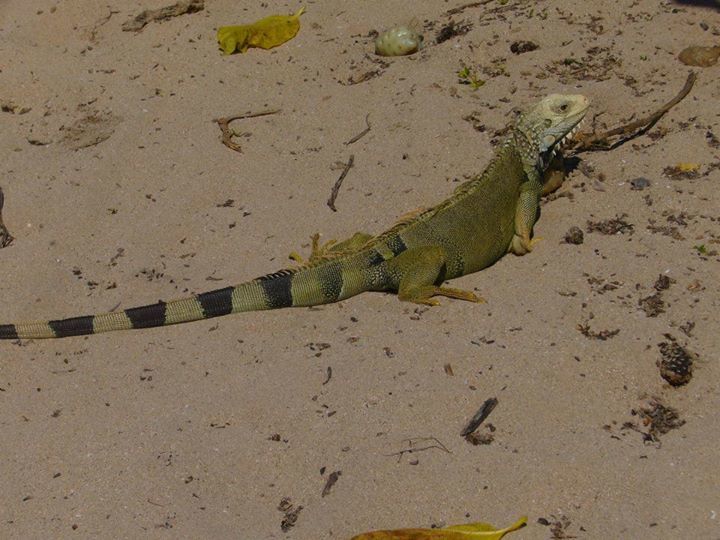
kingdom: Animalia
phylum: Chordata
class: Squamata
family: Iguanidae
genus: Iguana
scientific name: Iguana iguana
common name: Green iguana
